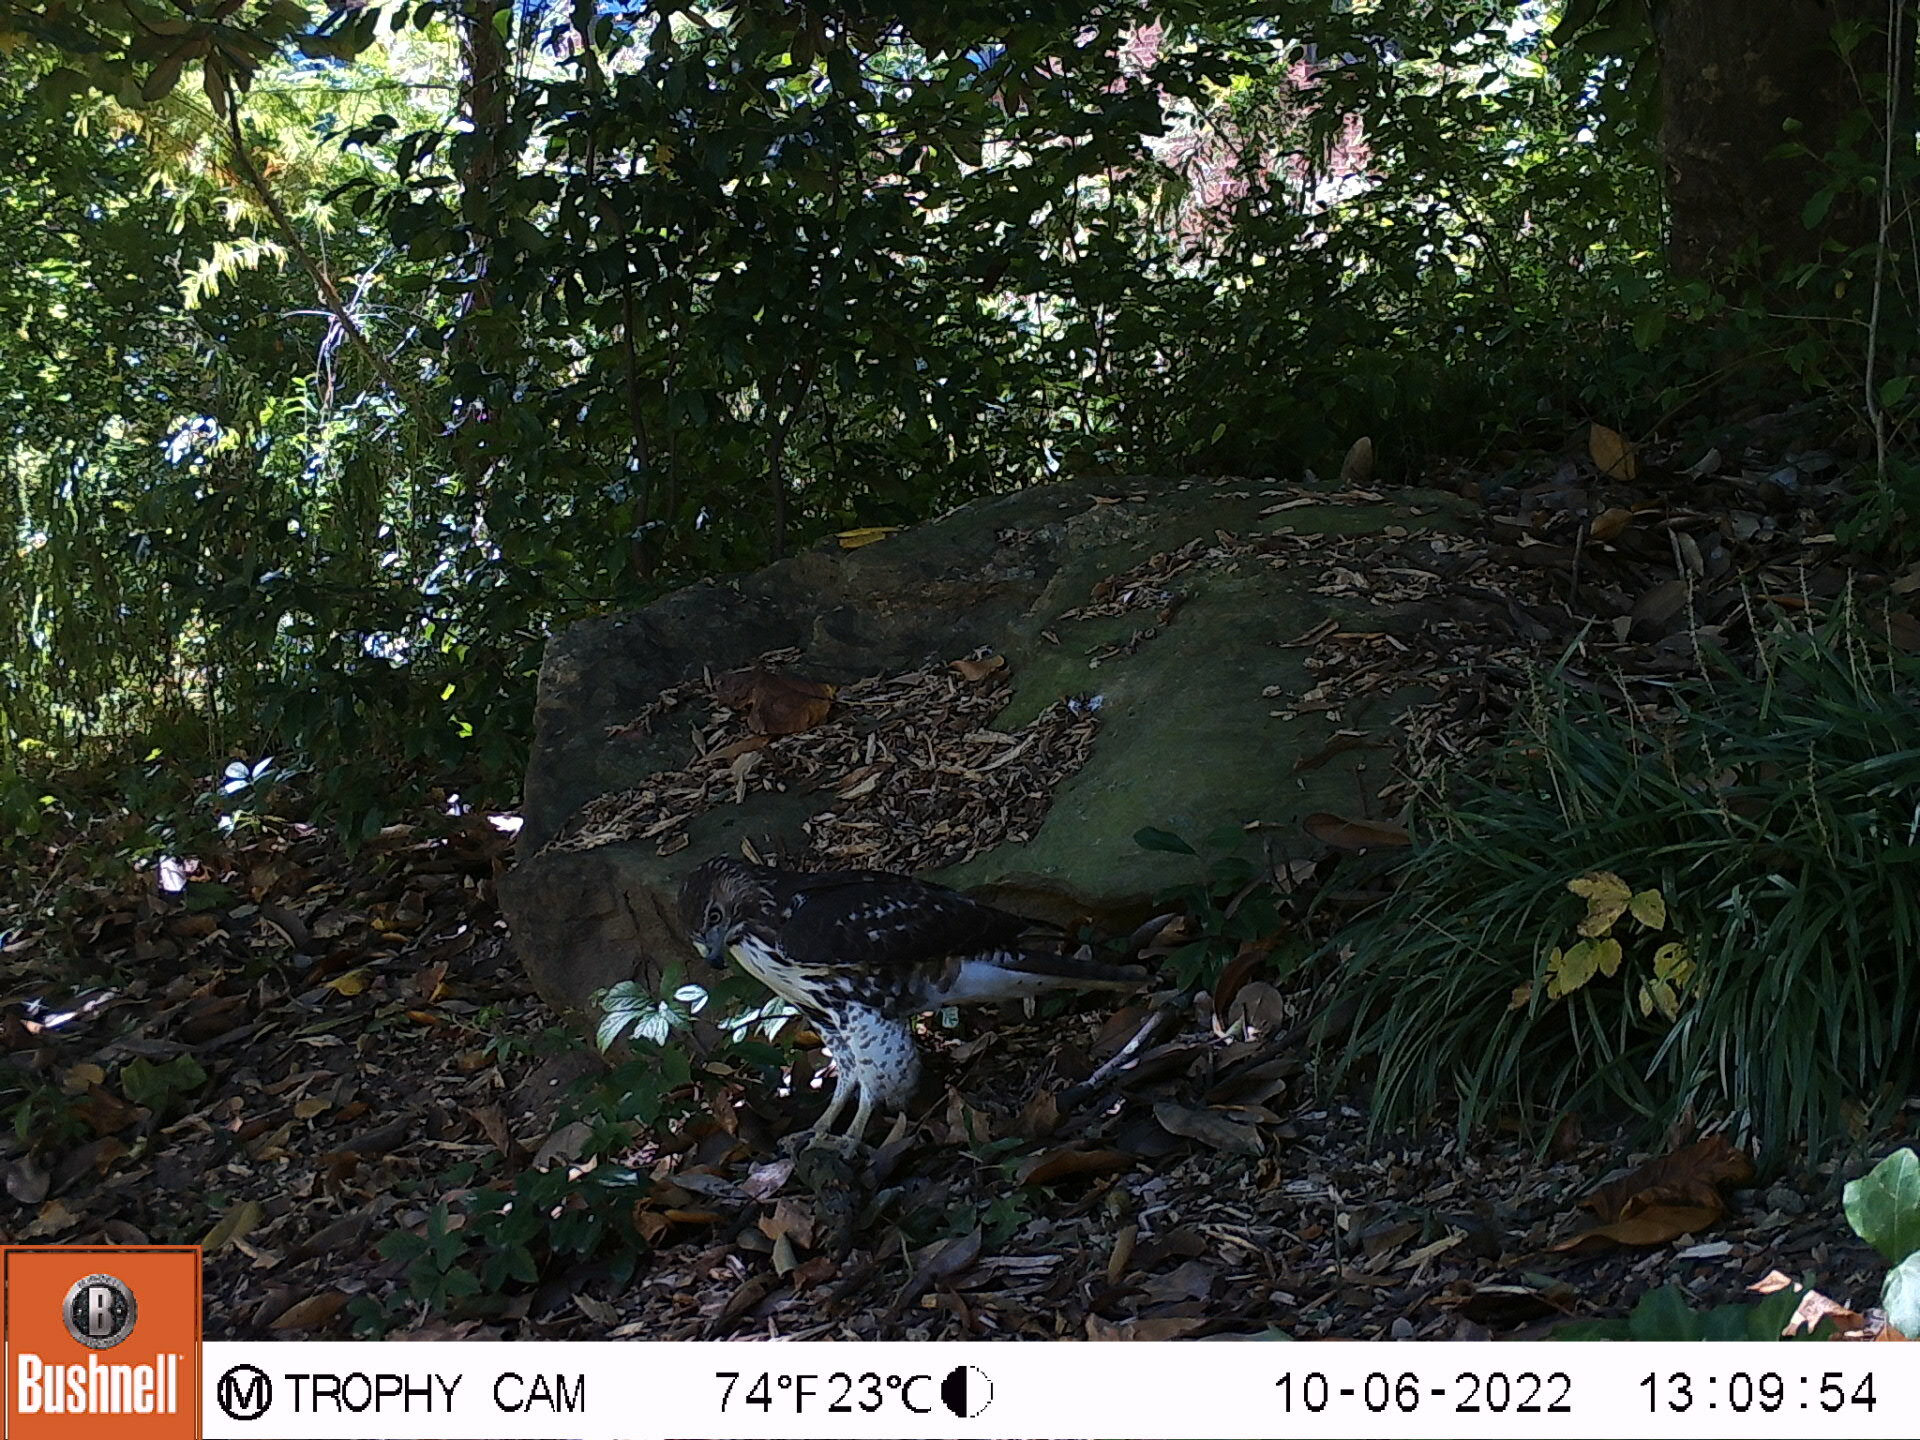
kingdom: Animalia
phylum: Chordata
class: Aves
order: Accipitriformes
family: Accipitridae
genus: Buteo
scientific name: Buteo jamaicensis
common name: Red-tailed hawk
